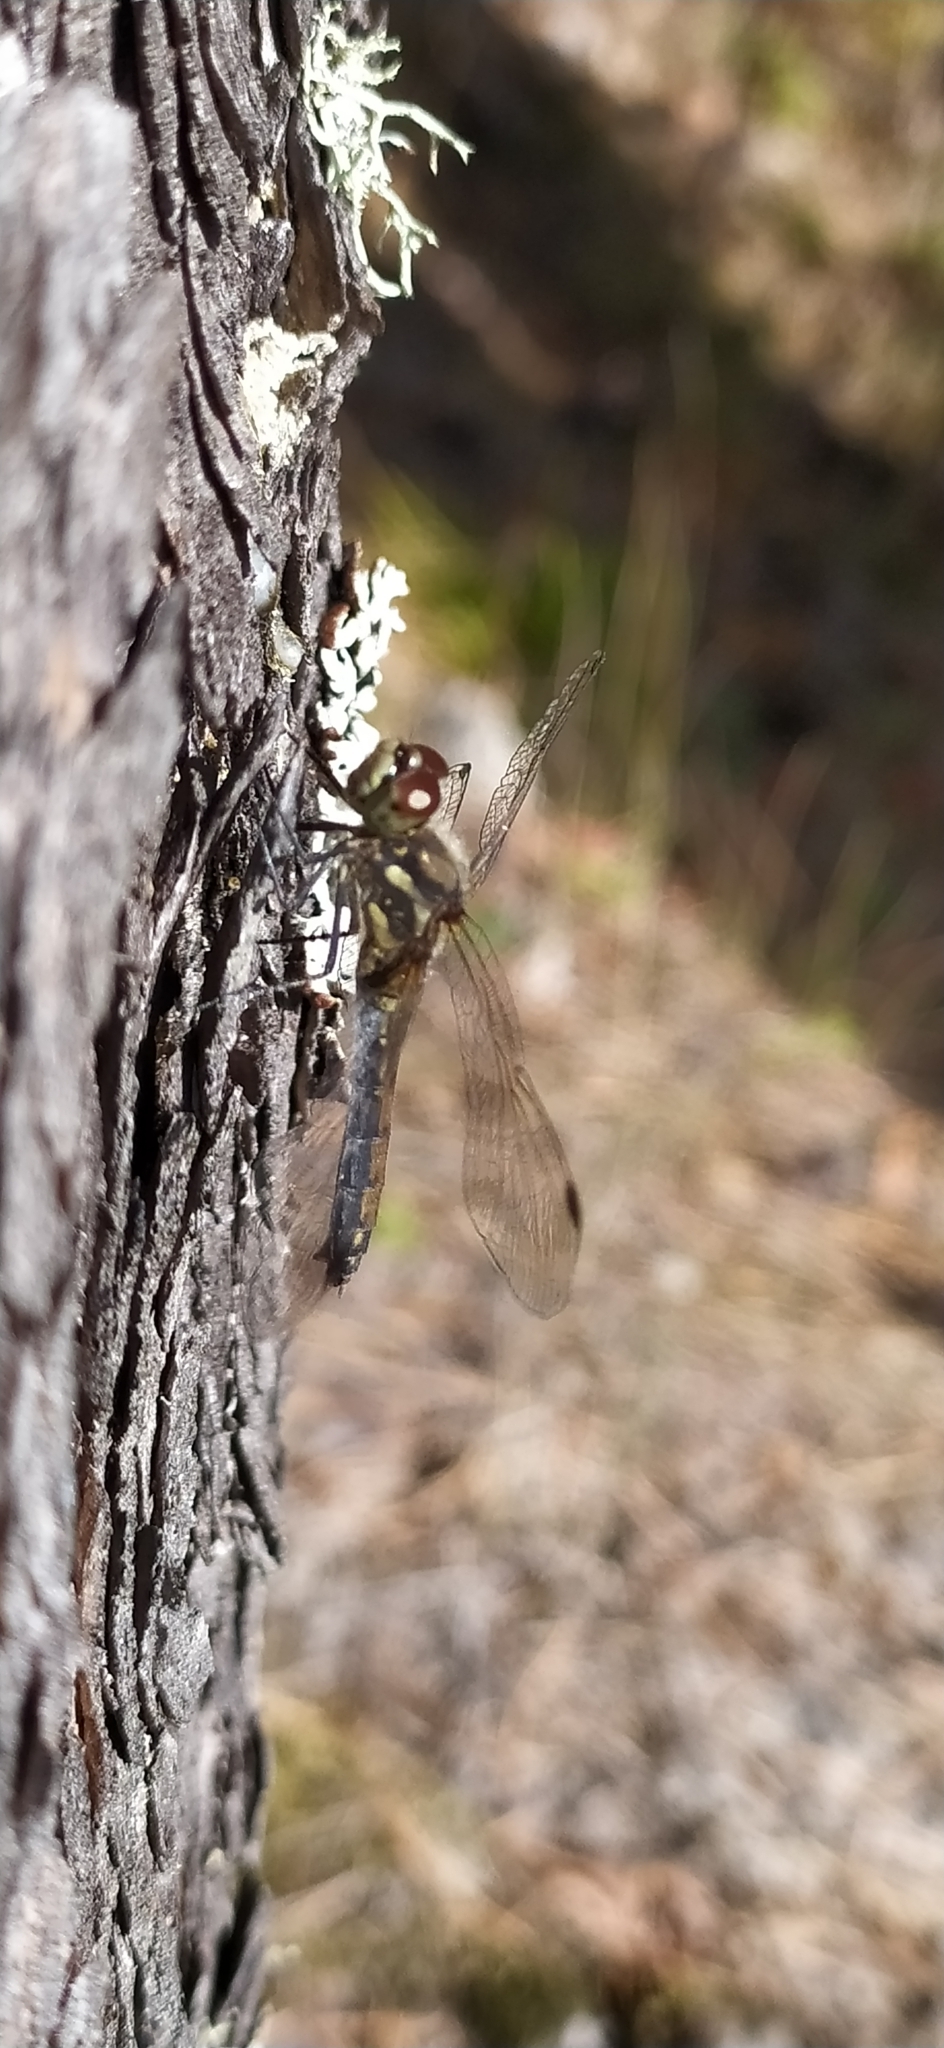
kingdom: Animalia
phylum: Arthropoda
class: Insecta
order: Odonata
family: Libellulidae
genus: Sympetrum
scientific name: Sympetrum danae
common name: Black darter
